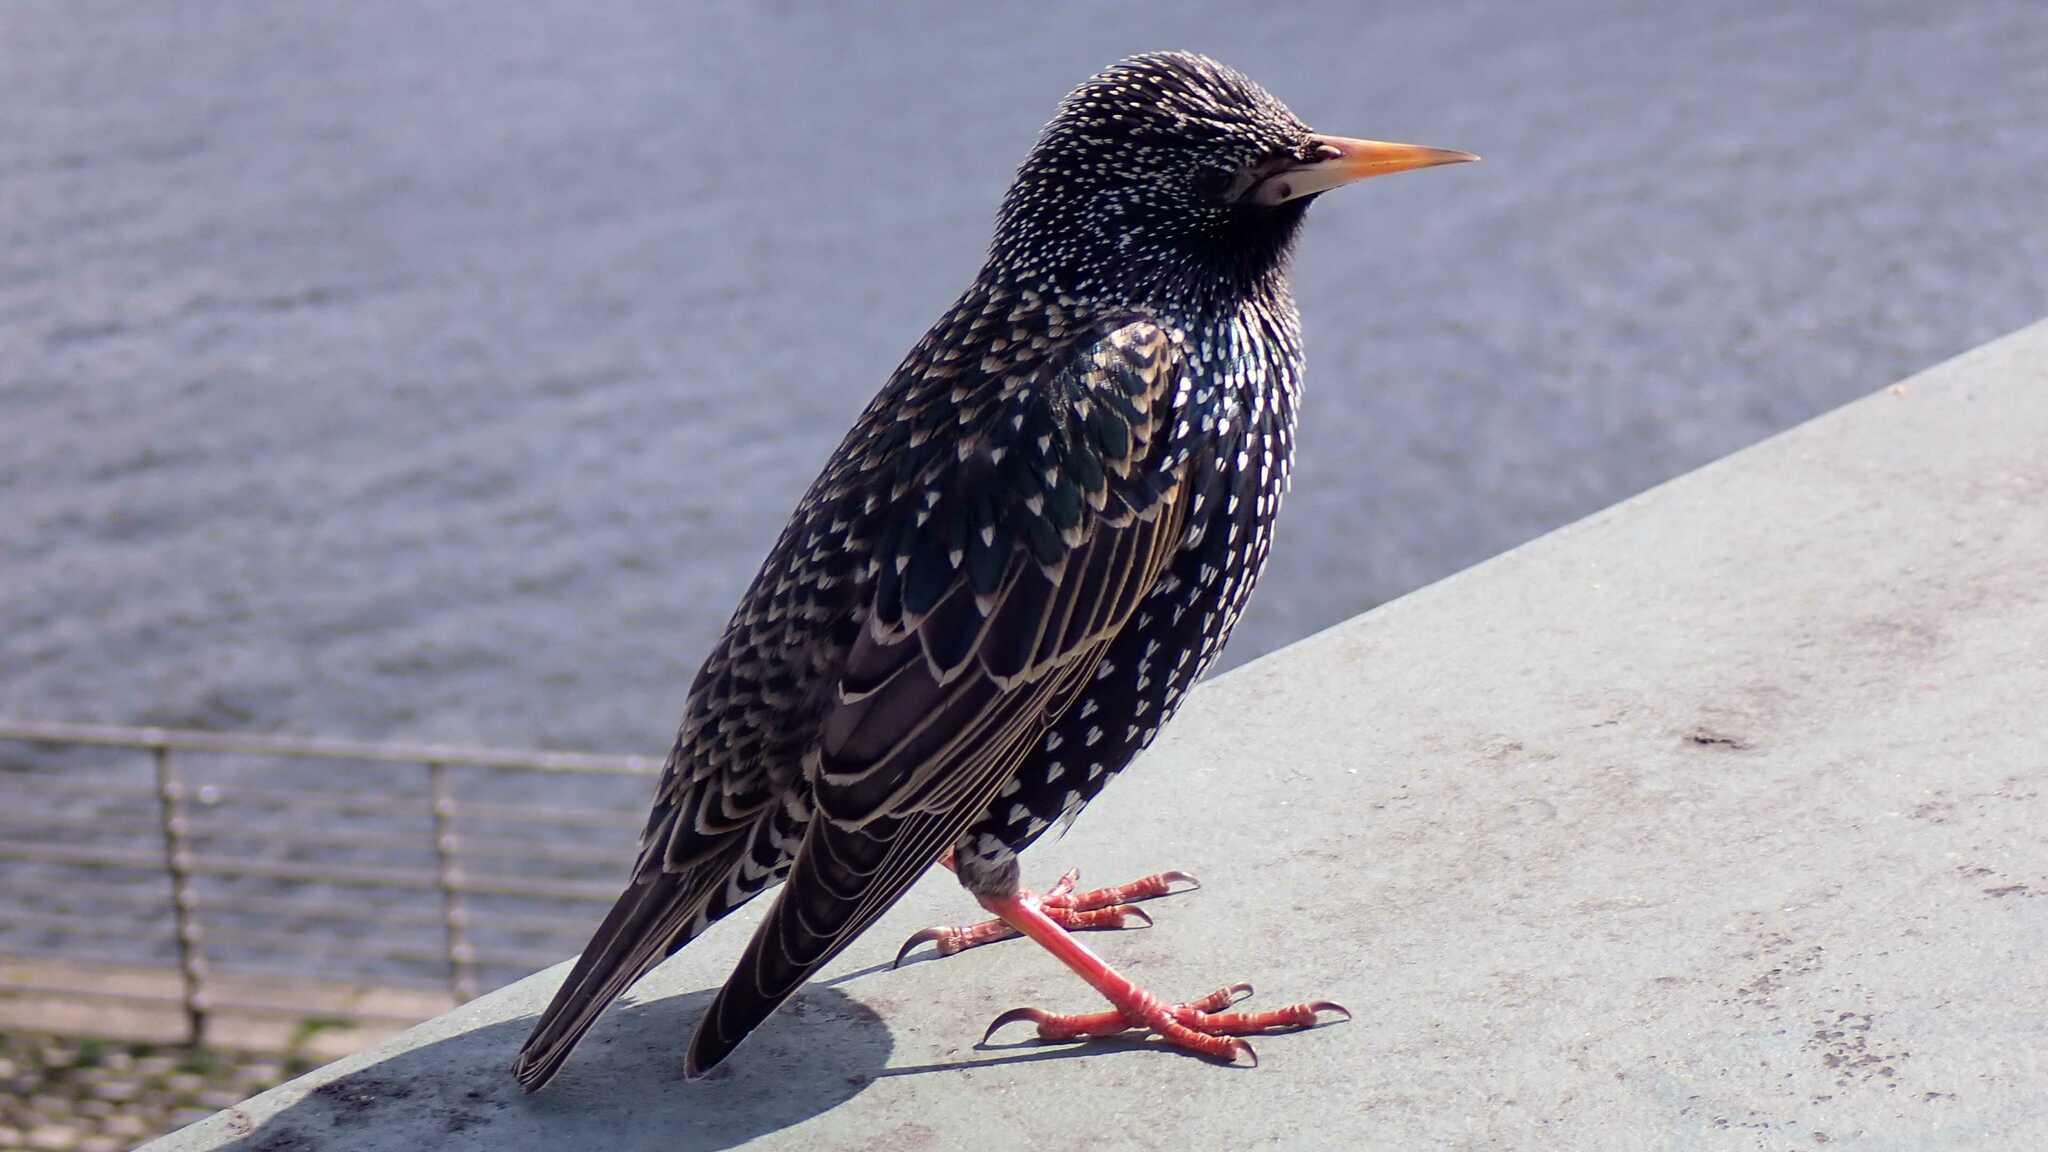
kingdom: Animalia
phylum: Chordata
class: Aves
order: Passeriformes
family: Sturnidae
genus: Sturnus
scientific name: Sturnus vulgaris
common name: Common starling
